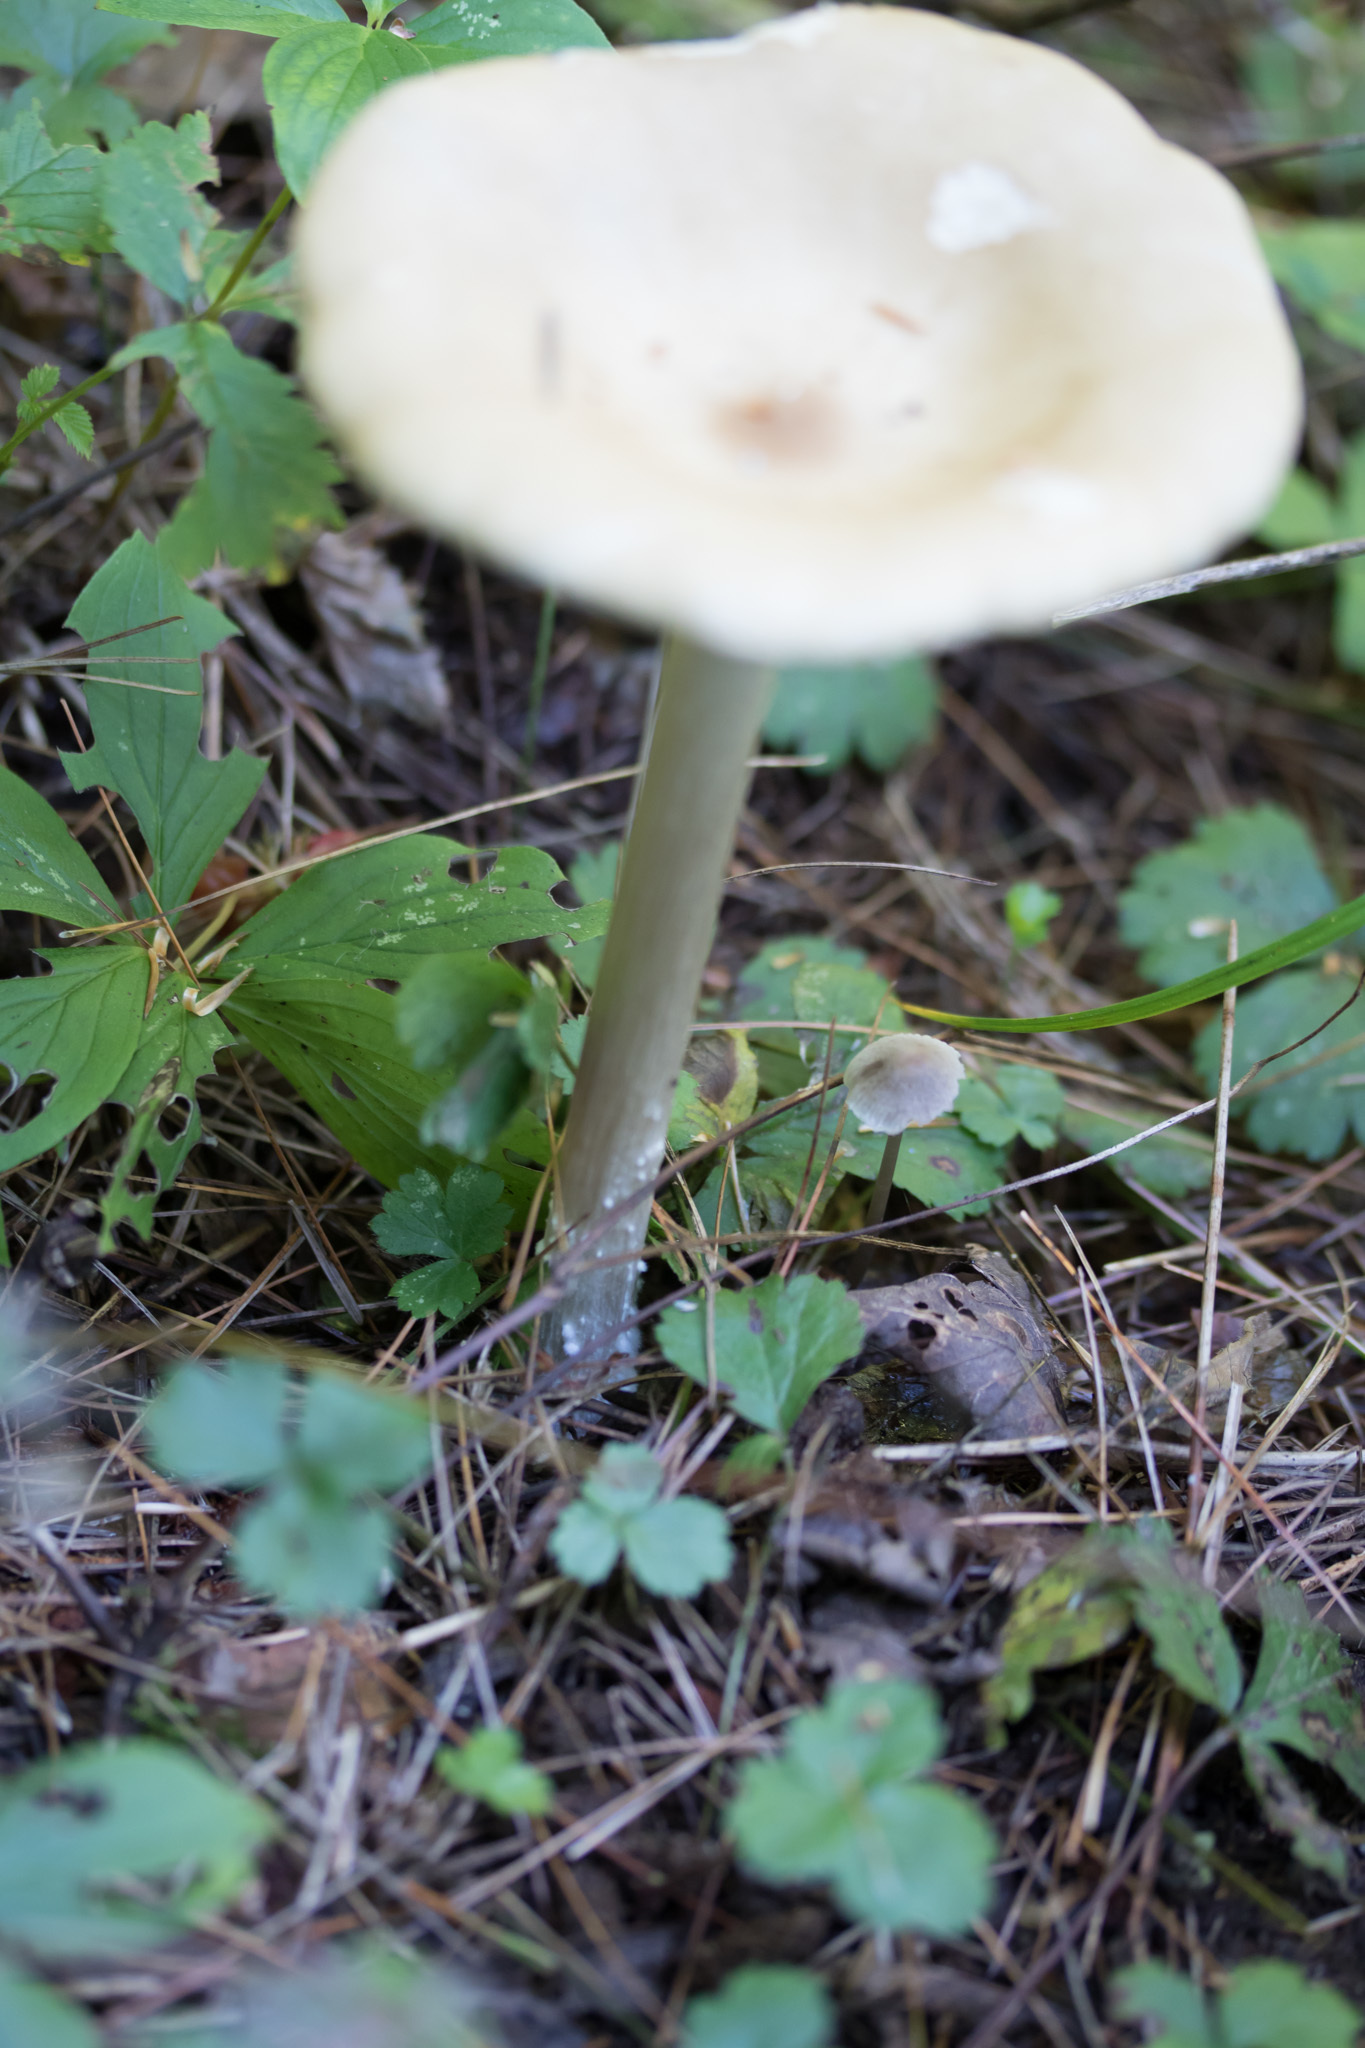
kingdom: Fungi
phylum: Basidiomycota
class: Agaricomycetes
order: Agaricales
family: Tricholomataceae
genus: Collybia
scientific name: Collybia alboflavida
